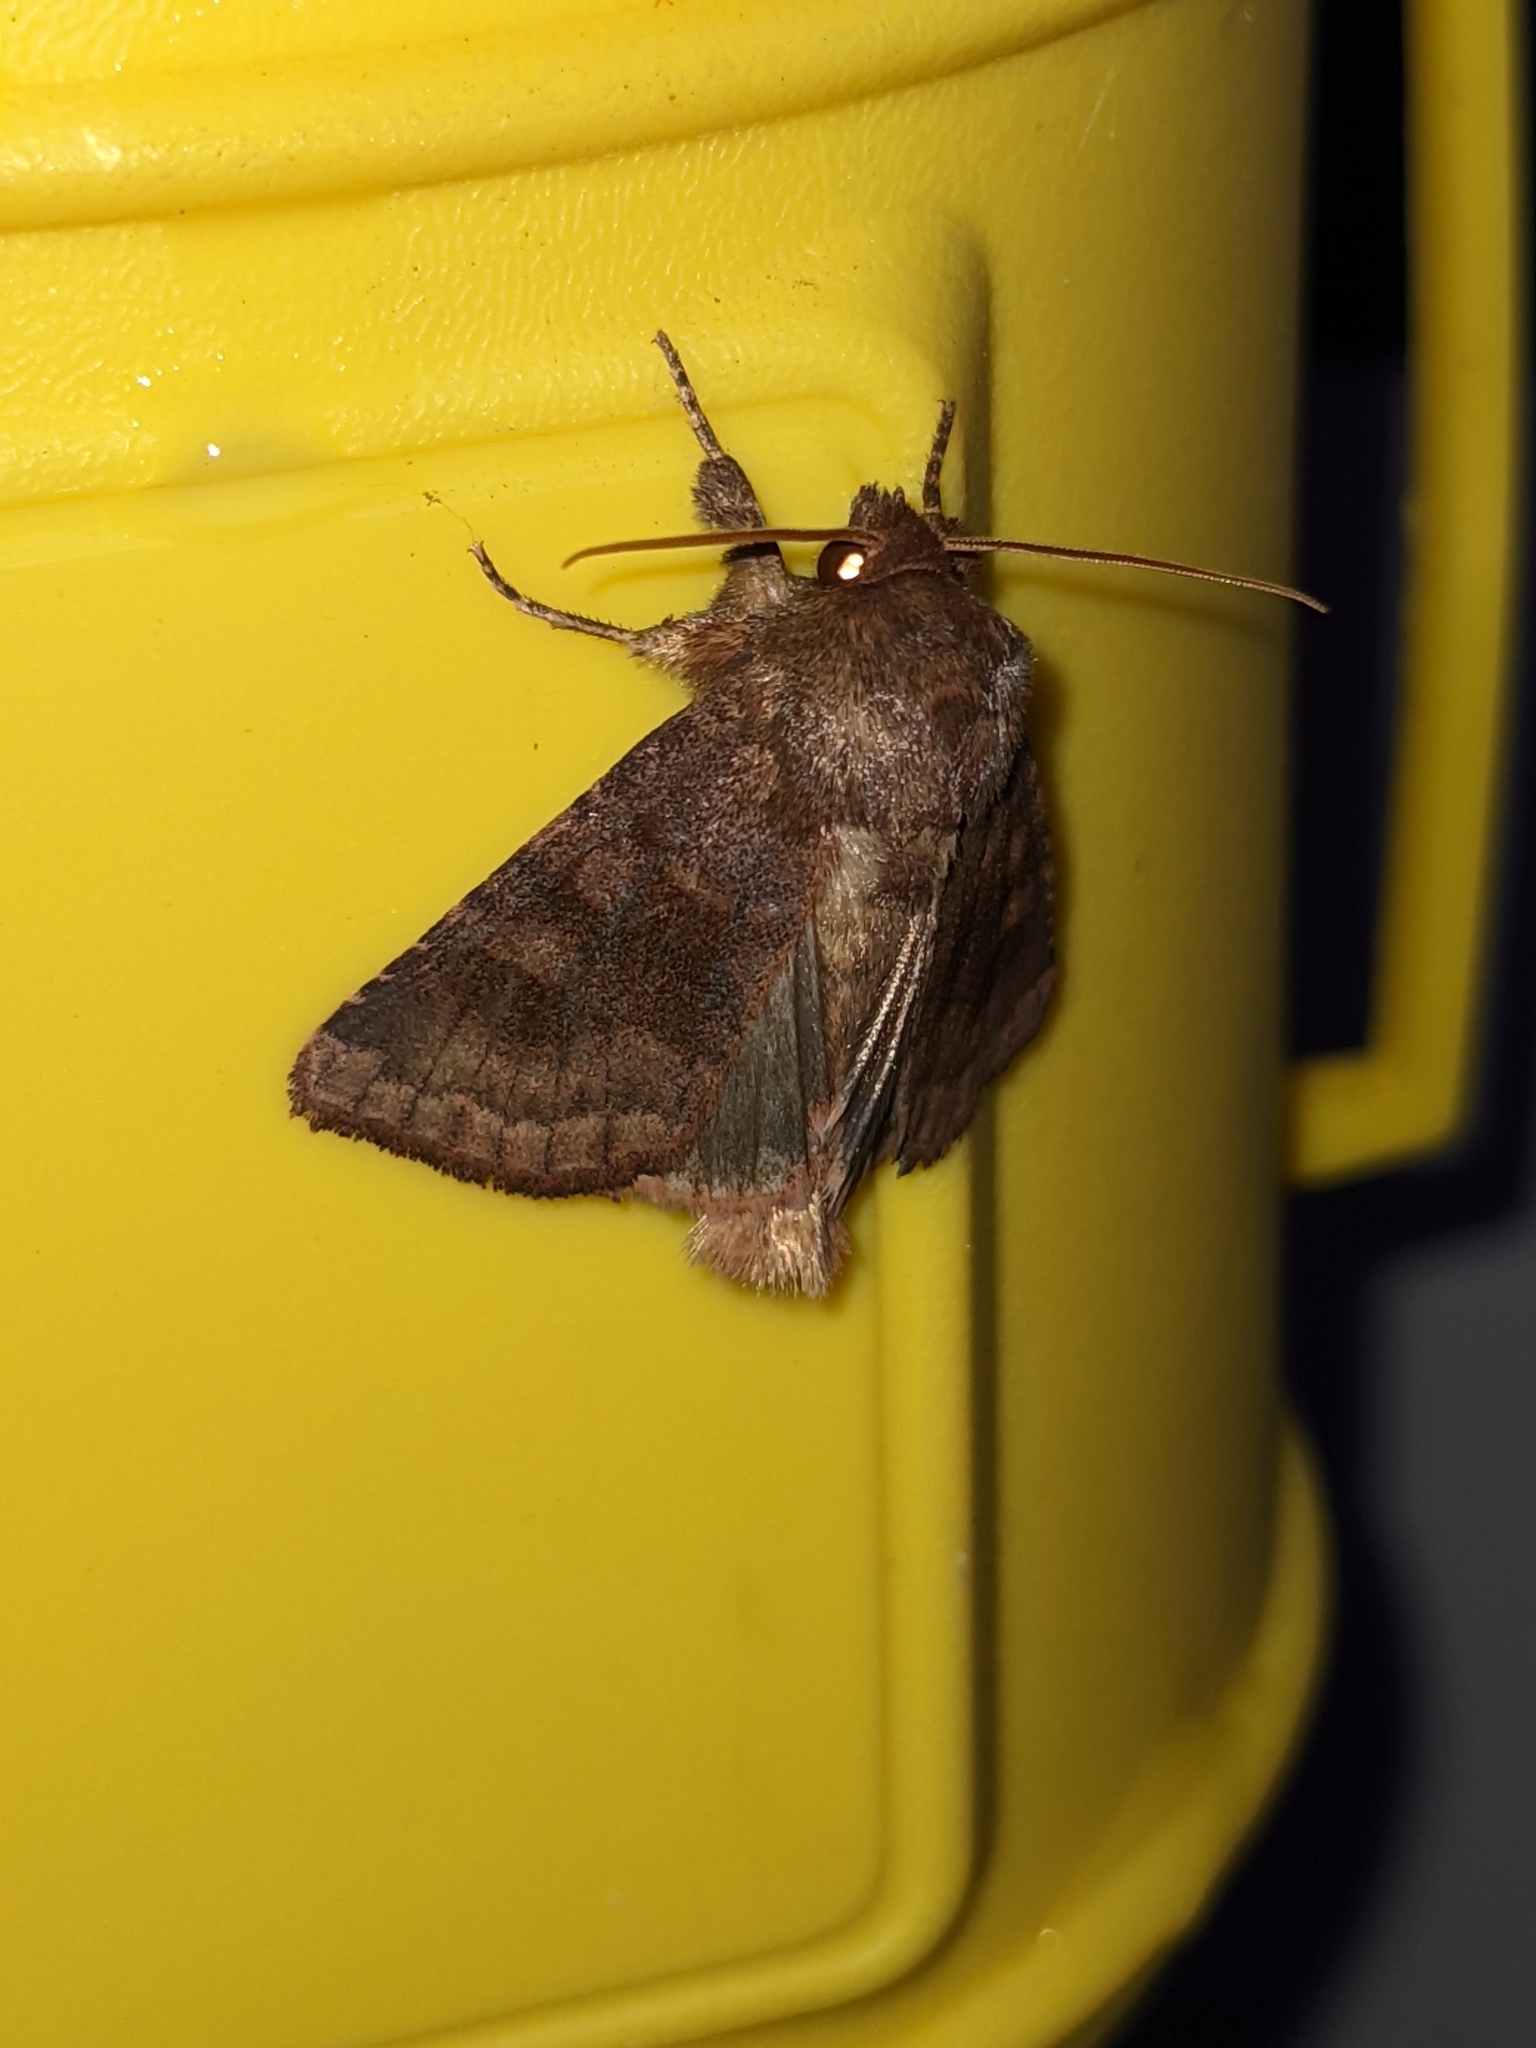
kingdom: Animalia
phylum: Arthropoda
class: Insecta
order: Lepidoptera
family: Noctuidae
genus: Nephelodes
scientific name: Nephelodes minians
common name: Bronzed cutworm
